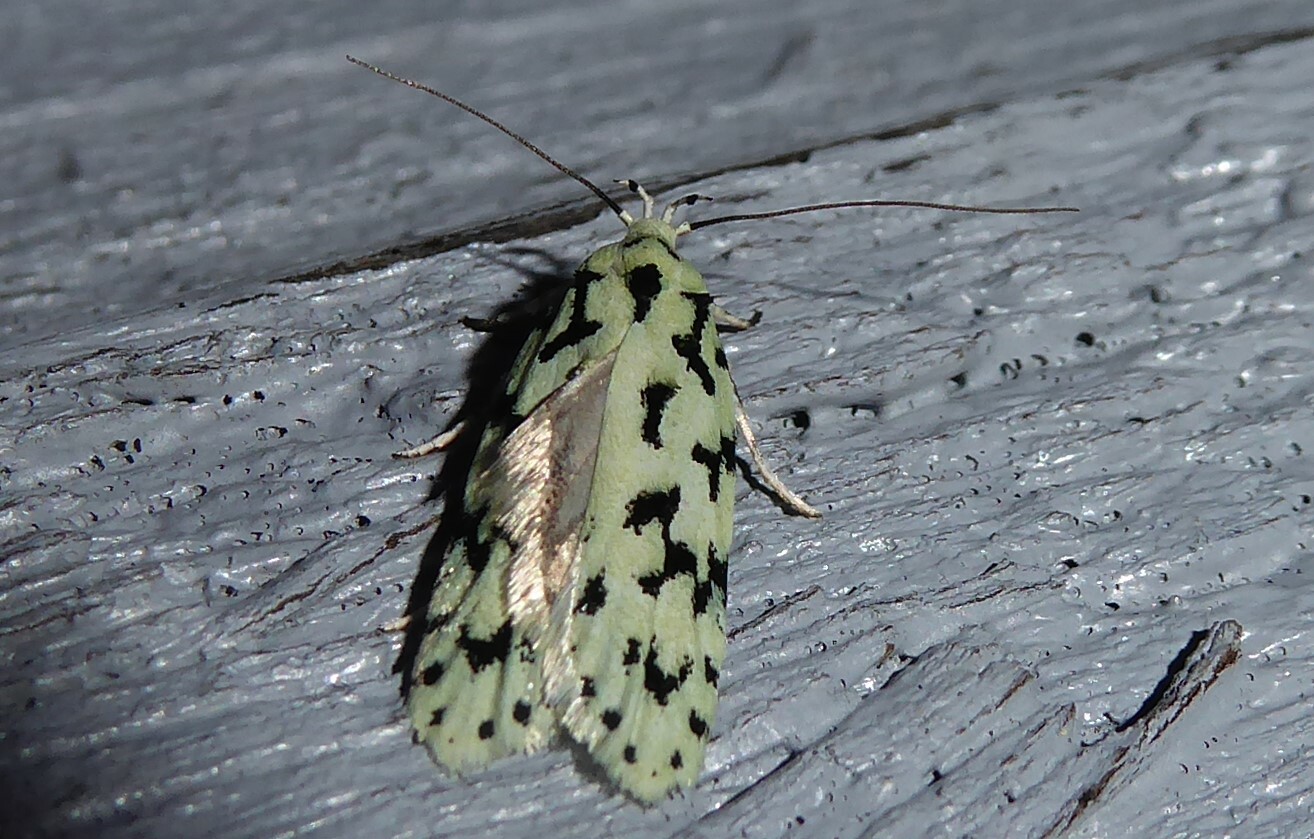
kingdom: Animalia
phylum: Arthropoda
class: Insecta
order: Lepidoptera
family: Oecophoridae
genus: Izatha
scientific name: Izatha huttoni
